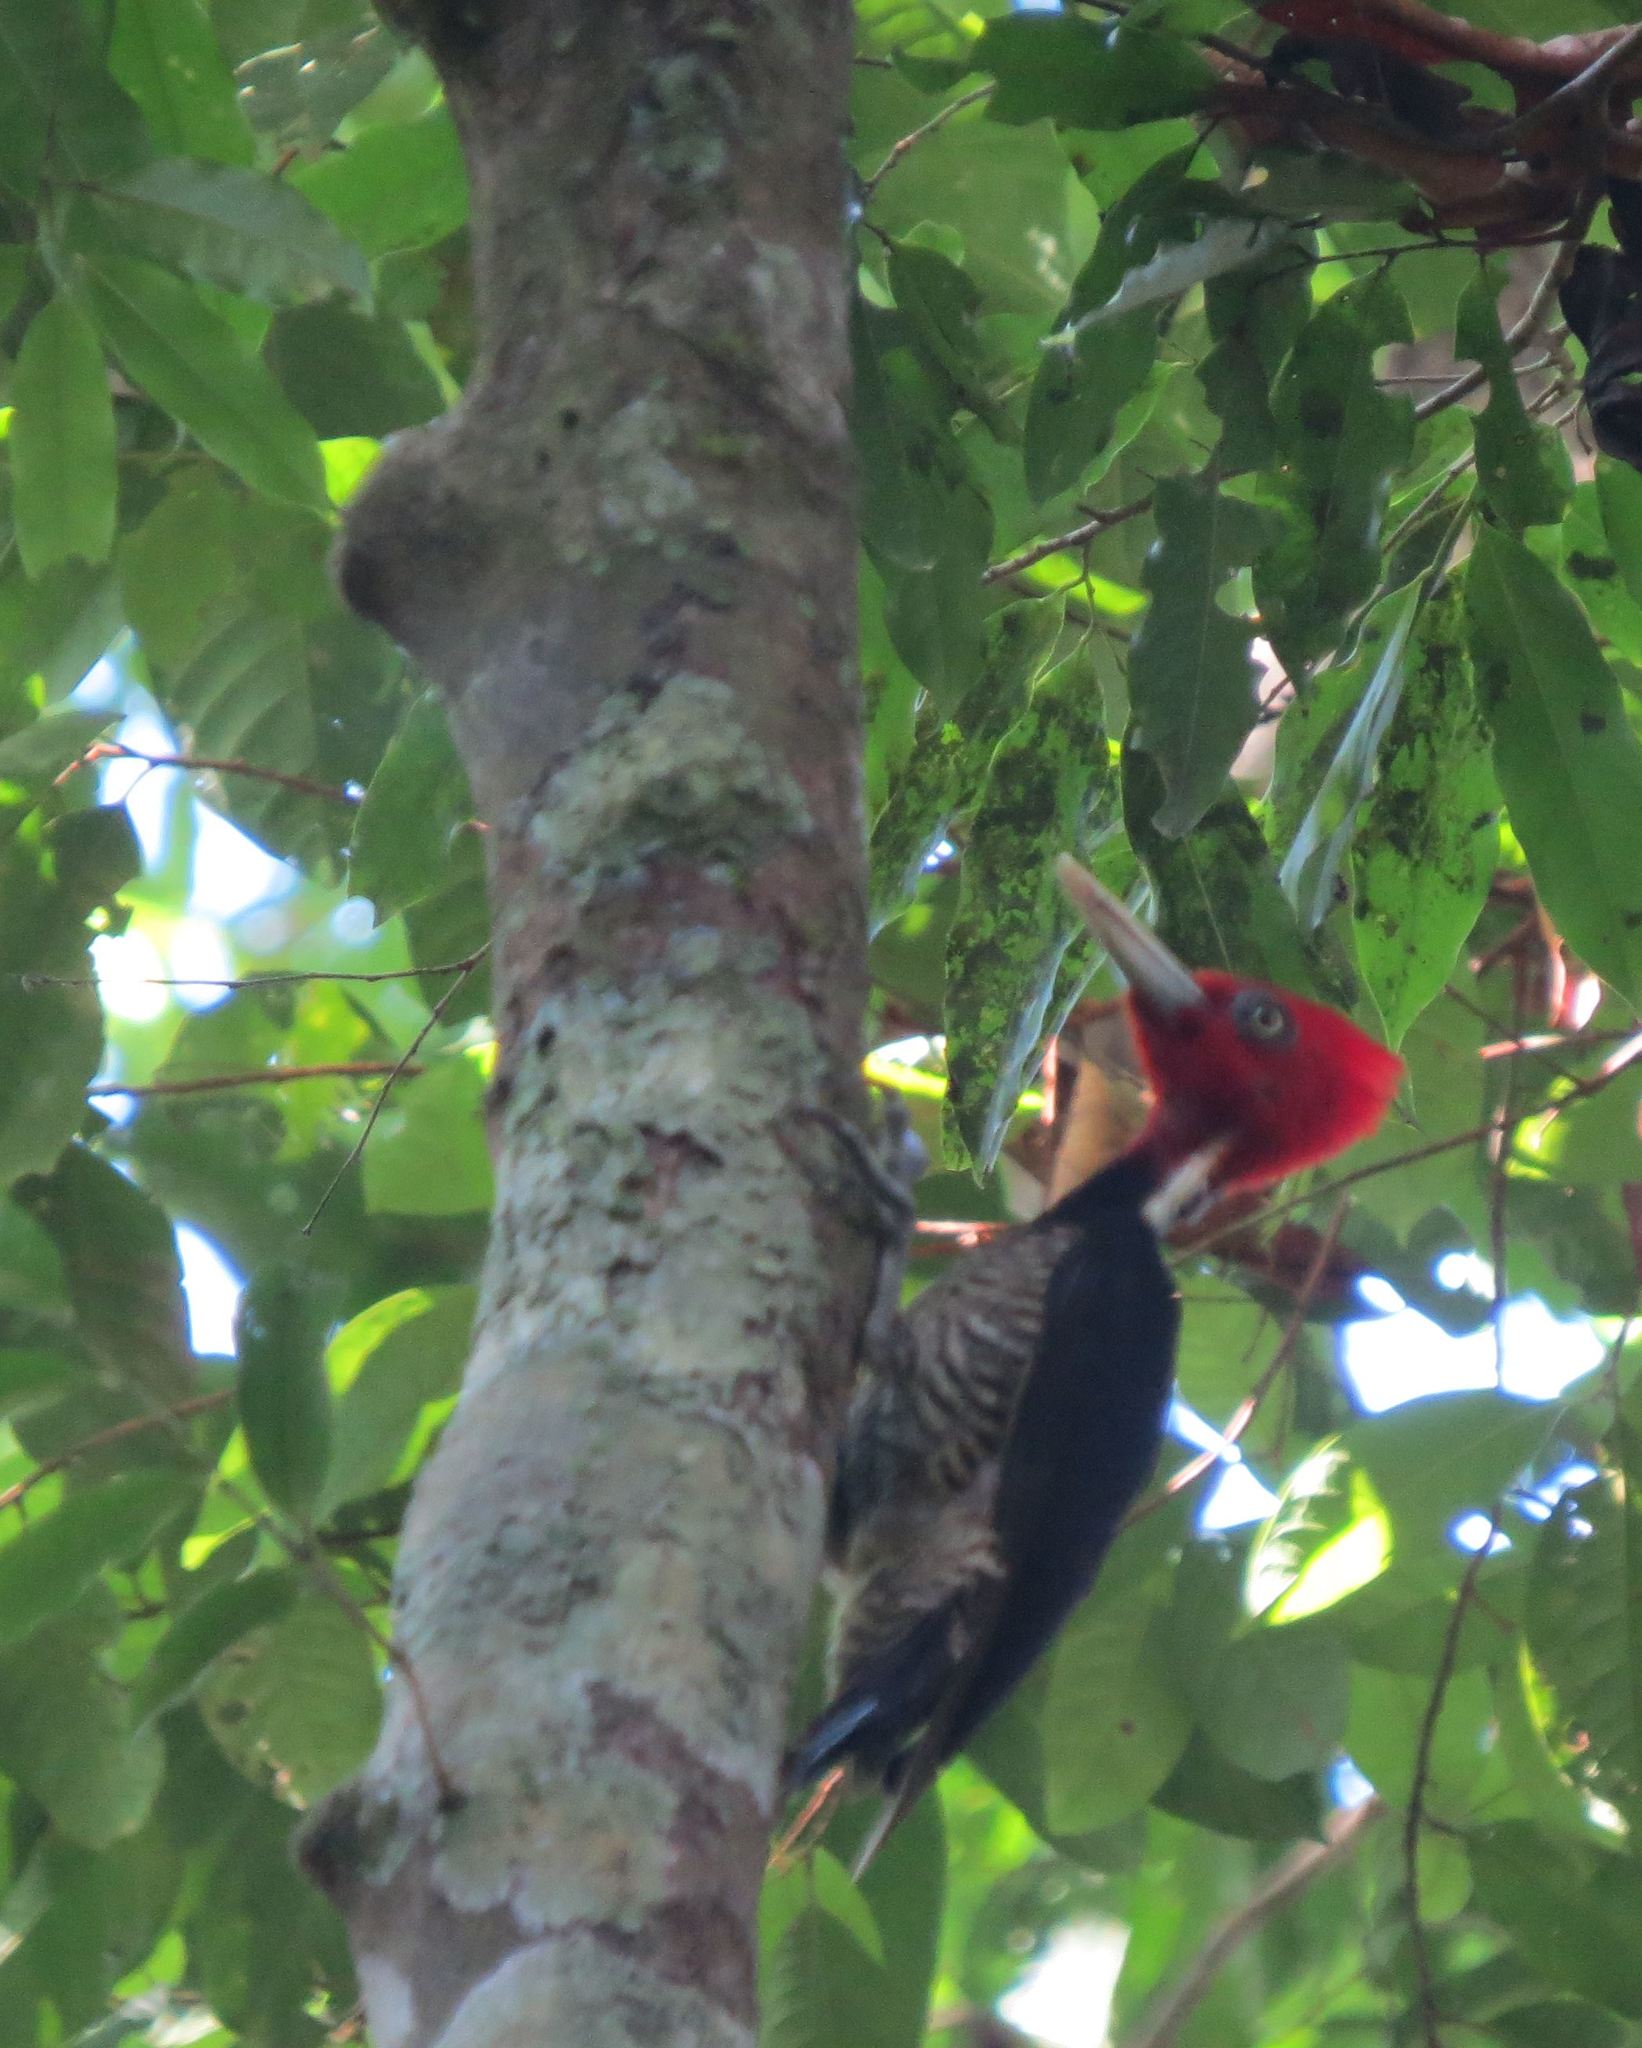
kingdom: Animalia
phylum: Chordata
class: Aves
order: Piciformes
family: Picidae
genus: Campephilus
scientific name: Campephilus guatemalensis
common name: Pale-billed woodpecker
